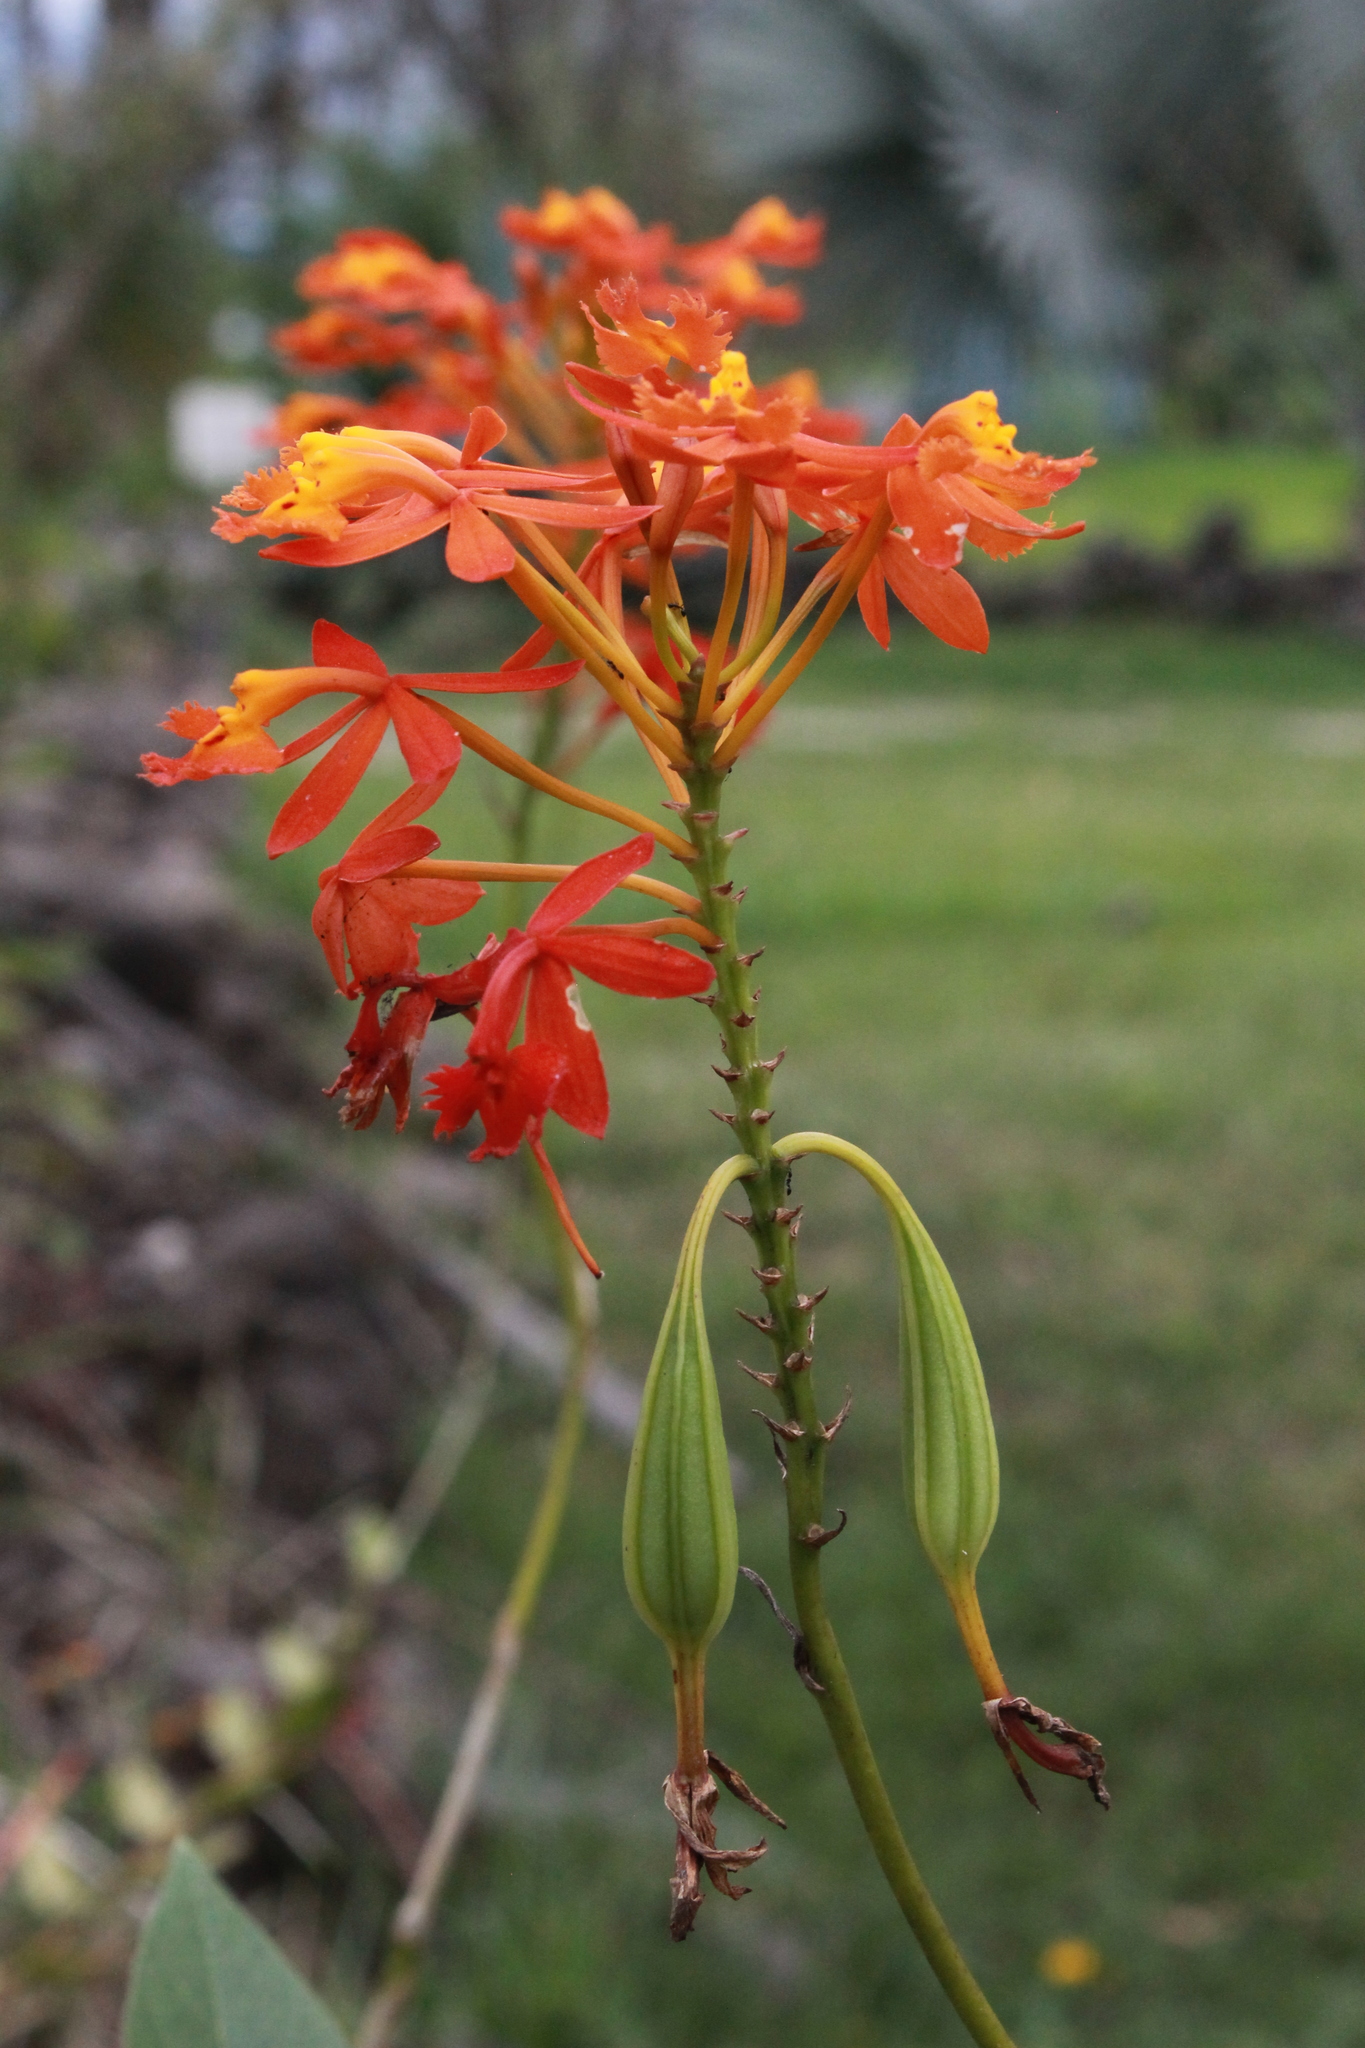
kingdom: Plantae
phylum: Tracheophyta
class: Liliopsida
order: Asparagales
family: Orchidaceae
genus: Epidendrum
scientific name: Epidendrum radicans
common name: Fire star orchid
